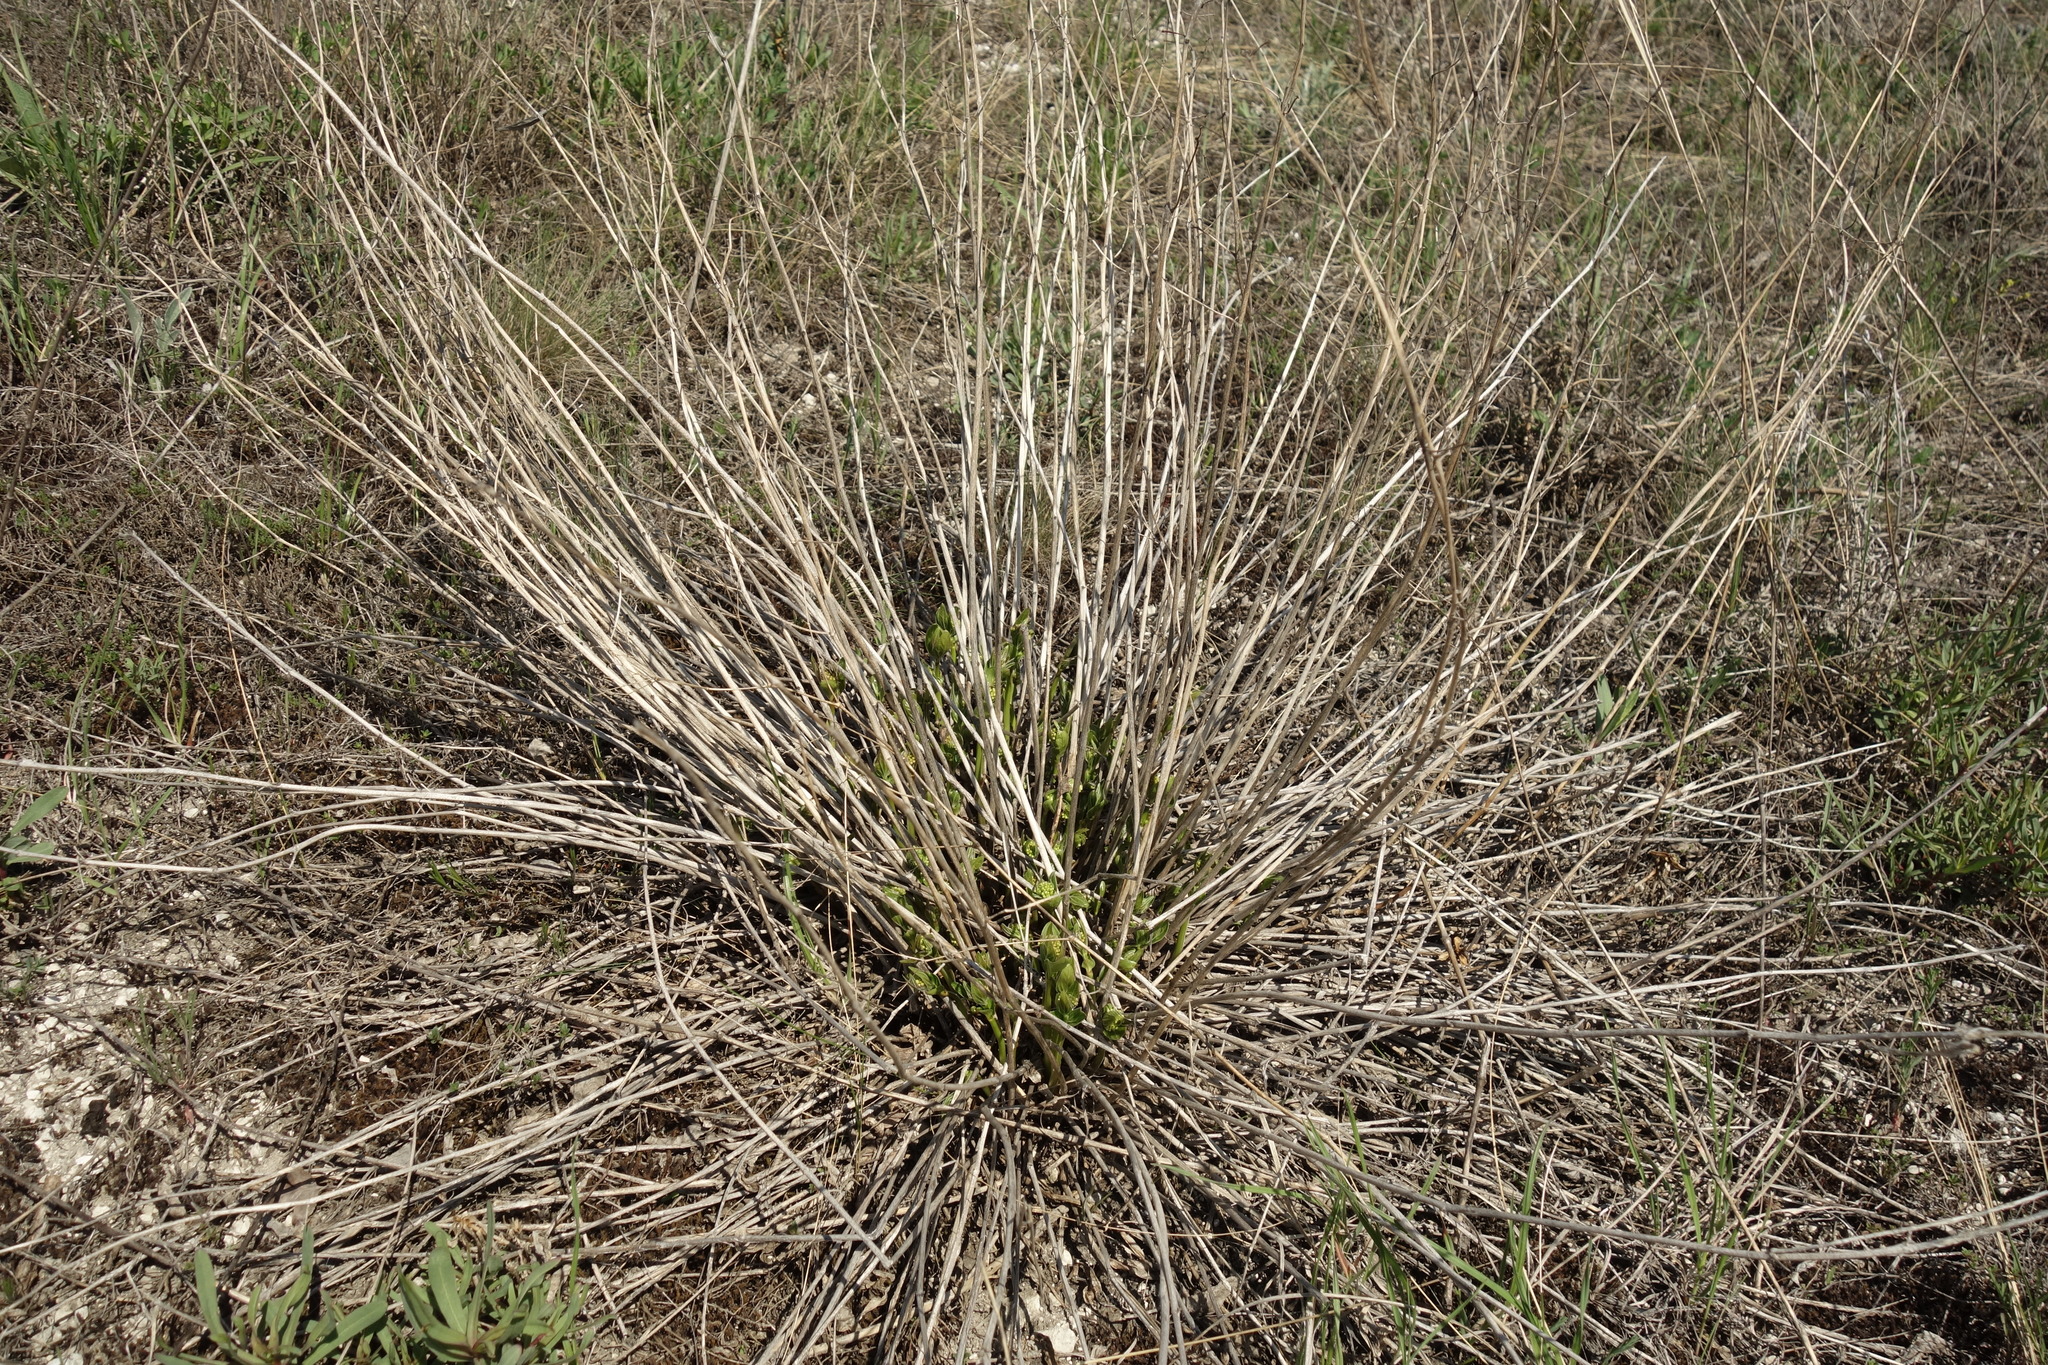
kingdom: Plantae
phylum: Tracheophyta
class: Magnoliopsida
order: Gentianales
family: Apocynaceae
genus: Vincetoxicum
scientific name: Vincetoxicum hirundinaria
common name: White swallowwort
